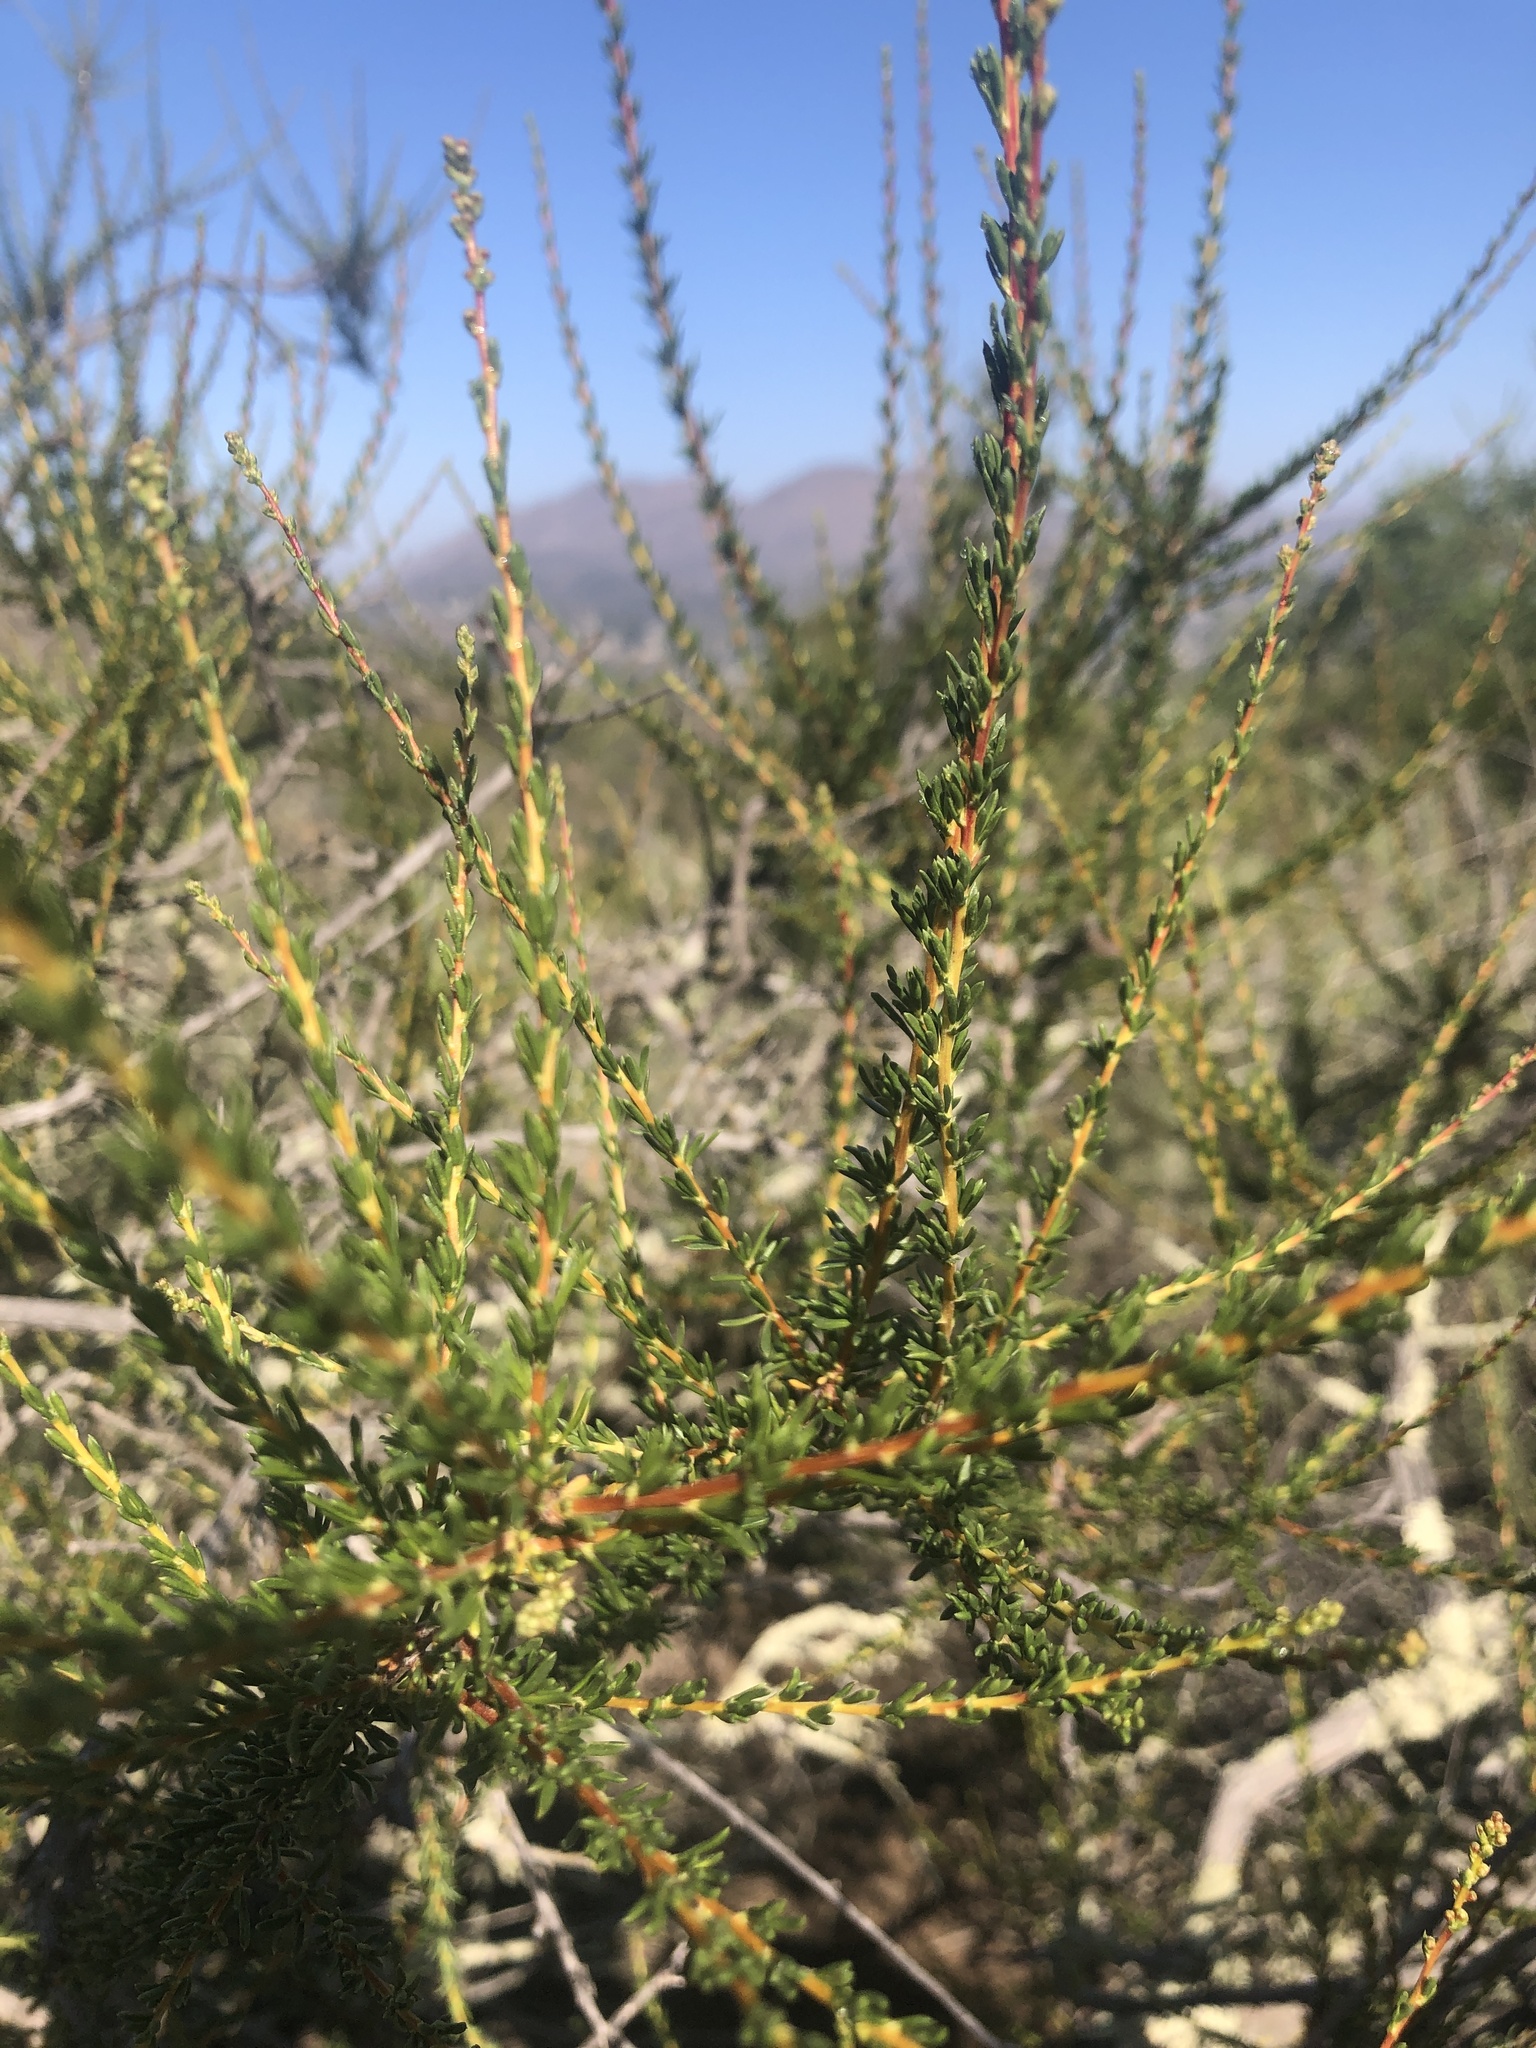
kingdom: Plantae
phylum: Tracheophyta
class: Magnoliopsida
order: Rosales
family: Rosaceae
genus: Adenostoma
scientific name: Adenostoma fasciculatum
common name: Chamise
